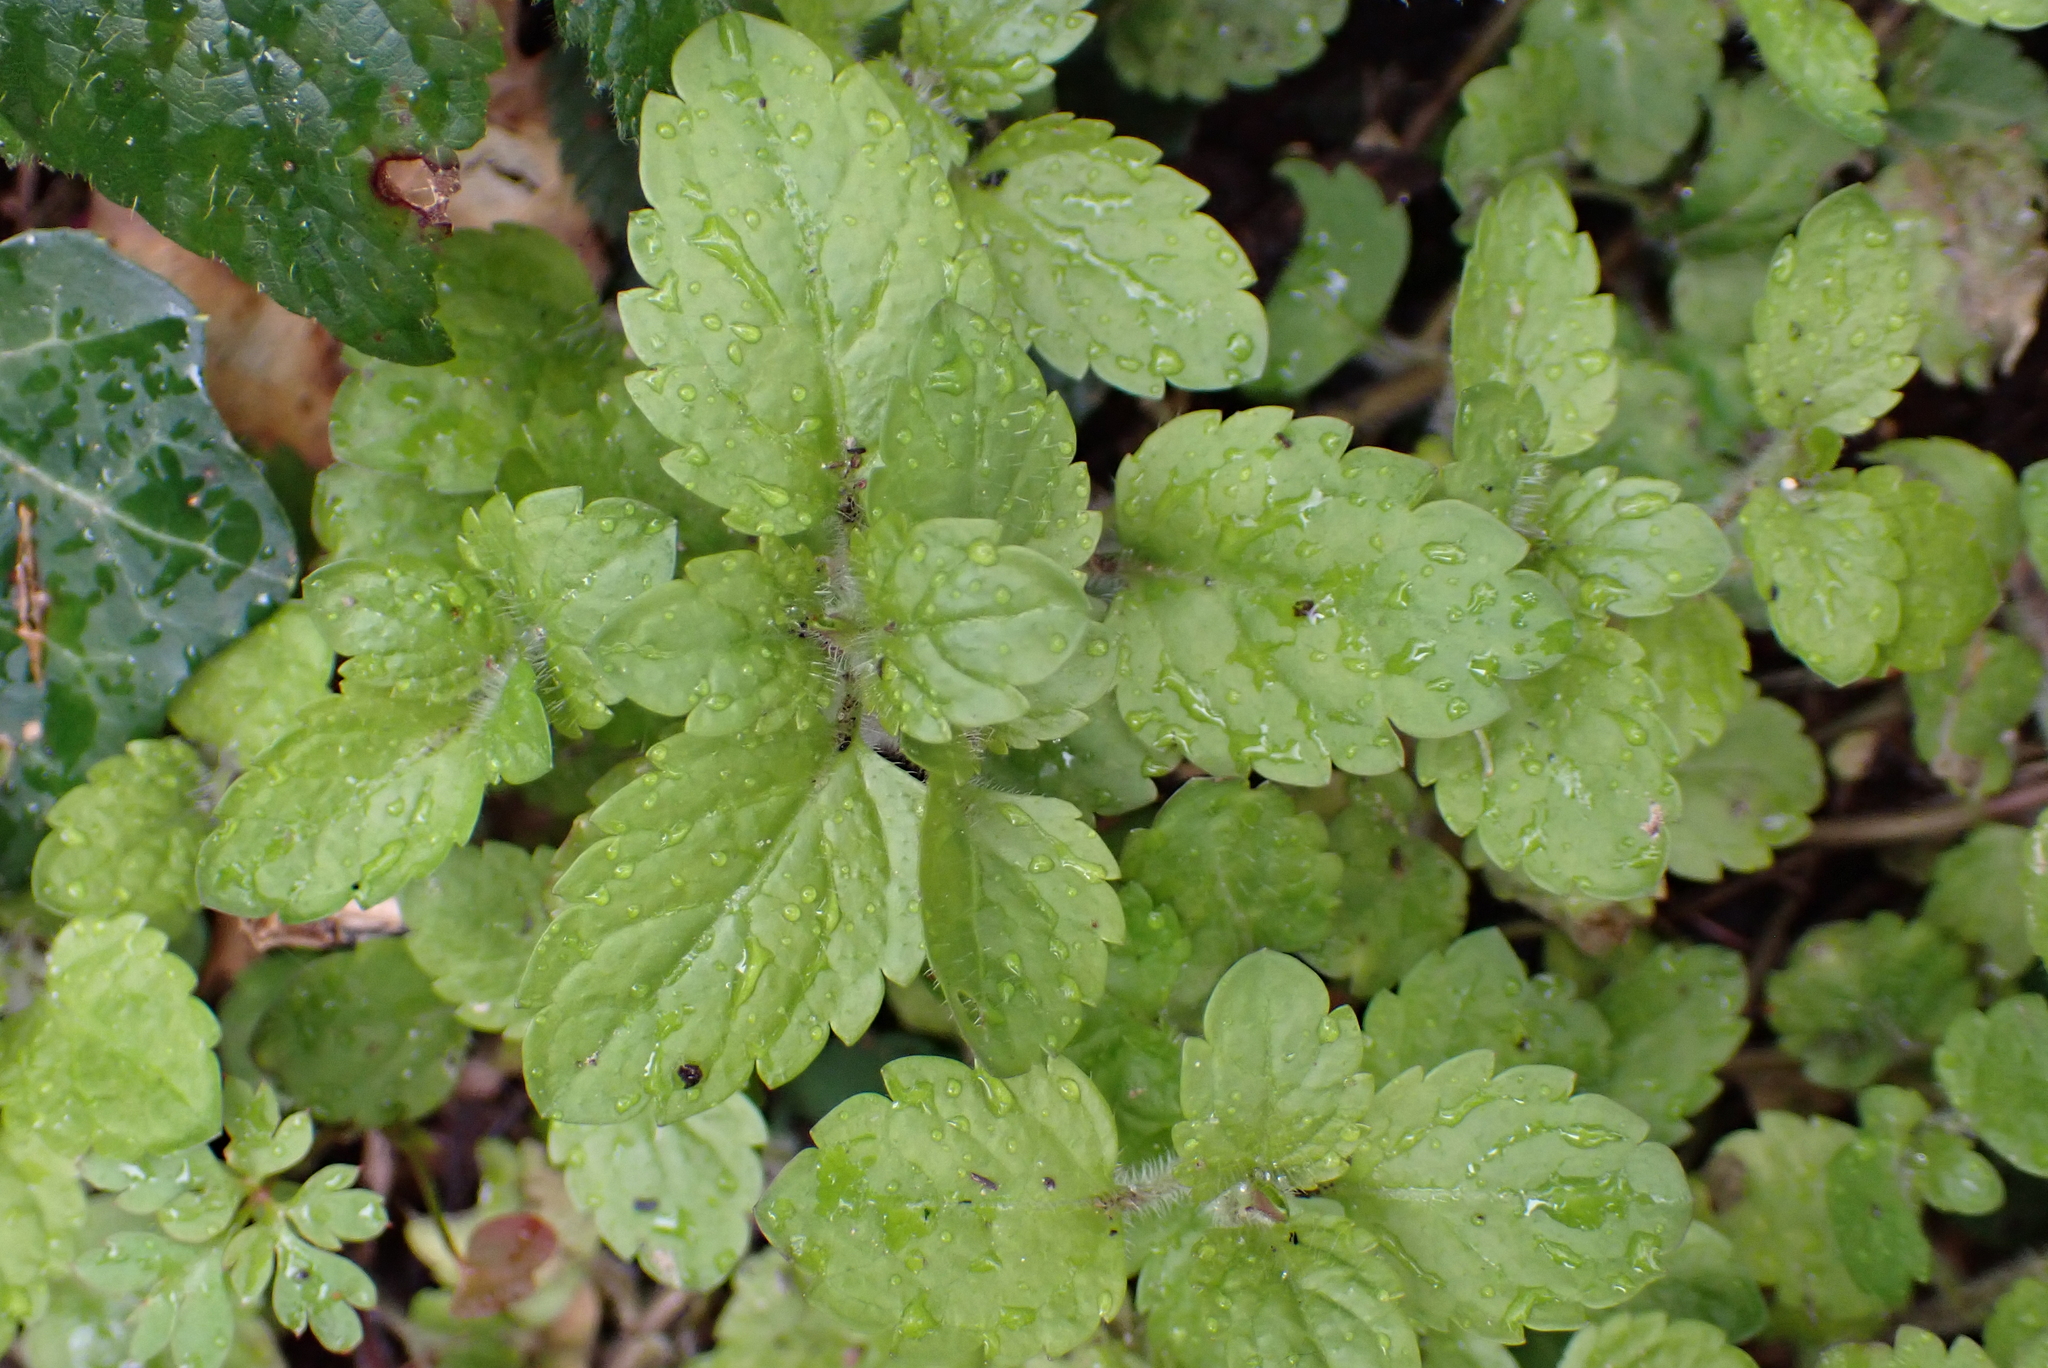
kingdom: Plantae
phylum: Tracheophyta
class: Magnoliopsida
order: Lamiales
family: Plantaginaceae
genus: Veronica
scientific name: Veronica montana
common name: Wood speedwell
